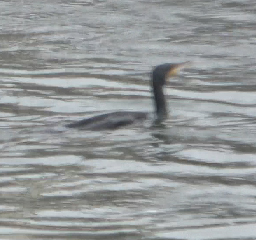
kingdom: Animalia
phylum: Chordata
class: Aves
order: Suliformes
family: Phalacrocoracidae
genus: Phalacrocorax
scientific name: Phalacrocorax carbo
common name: Great cormorant
